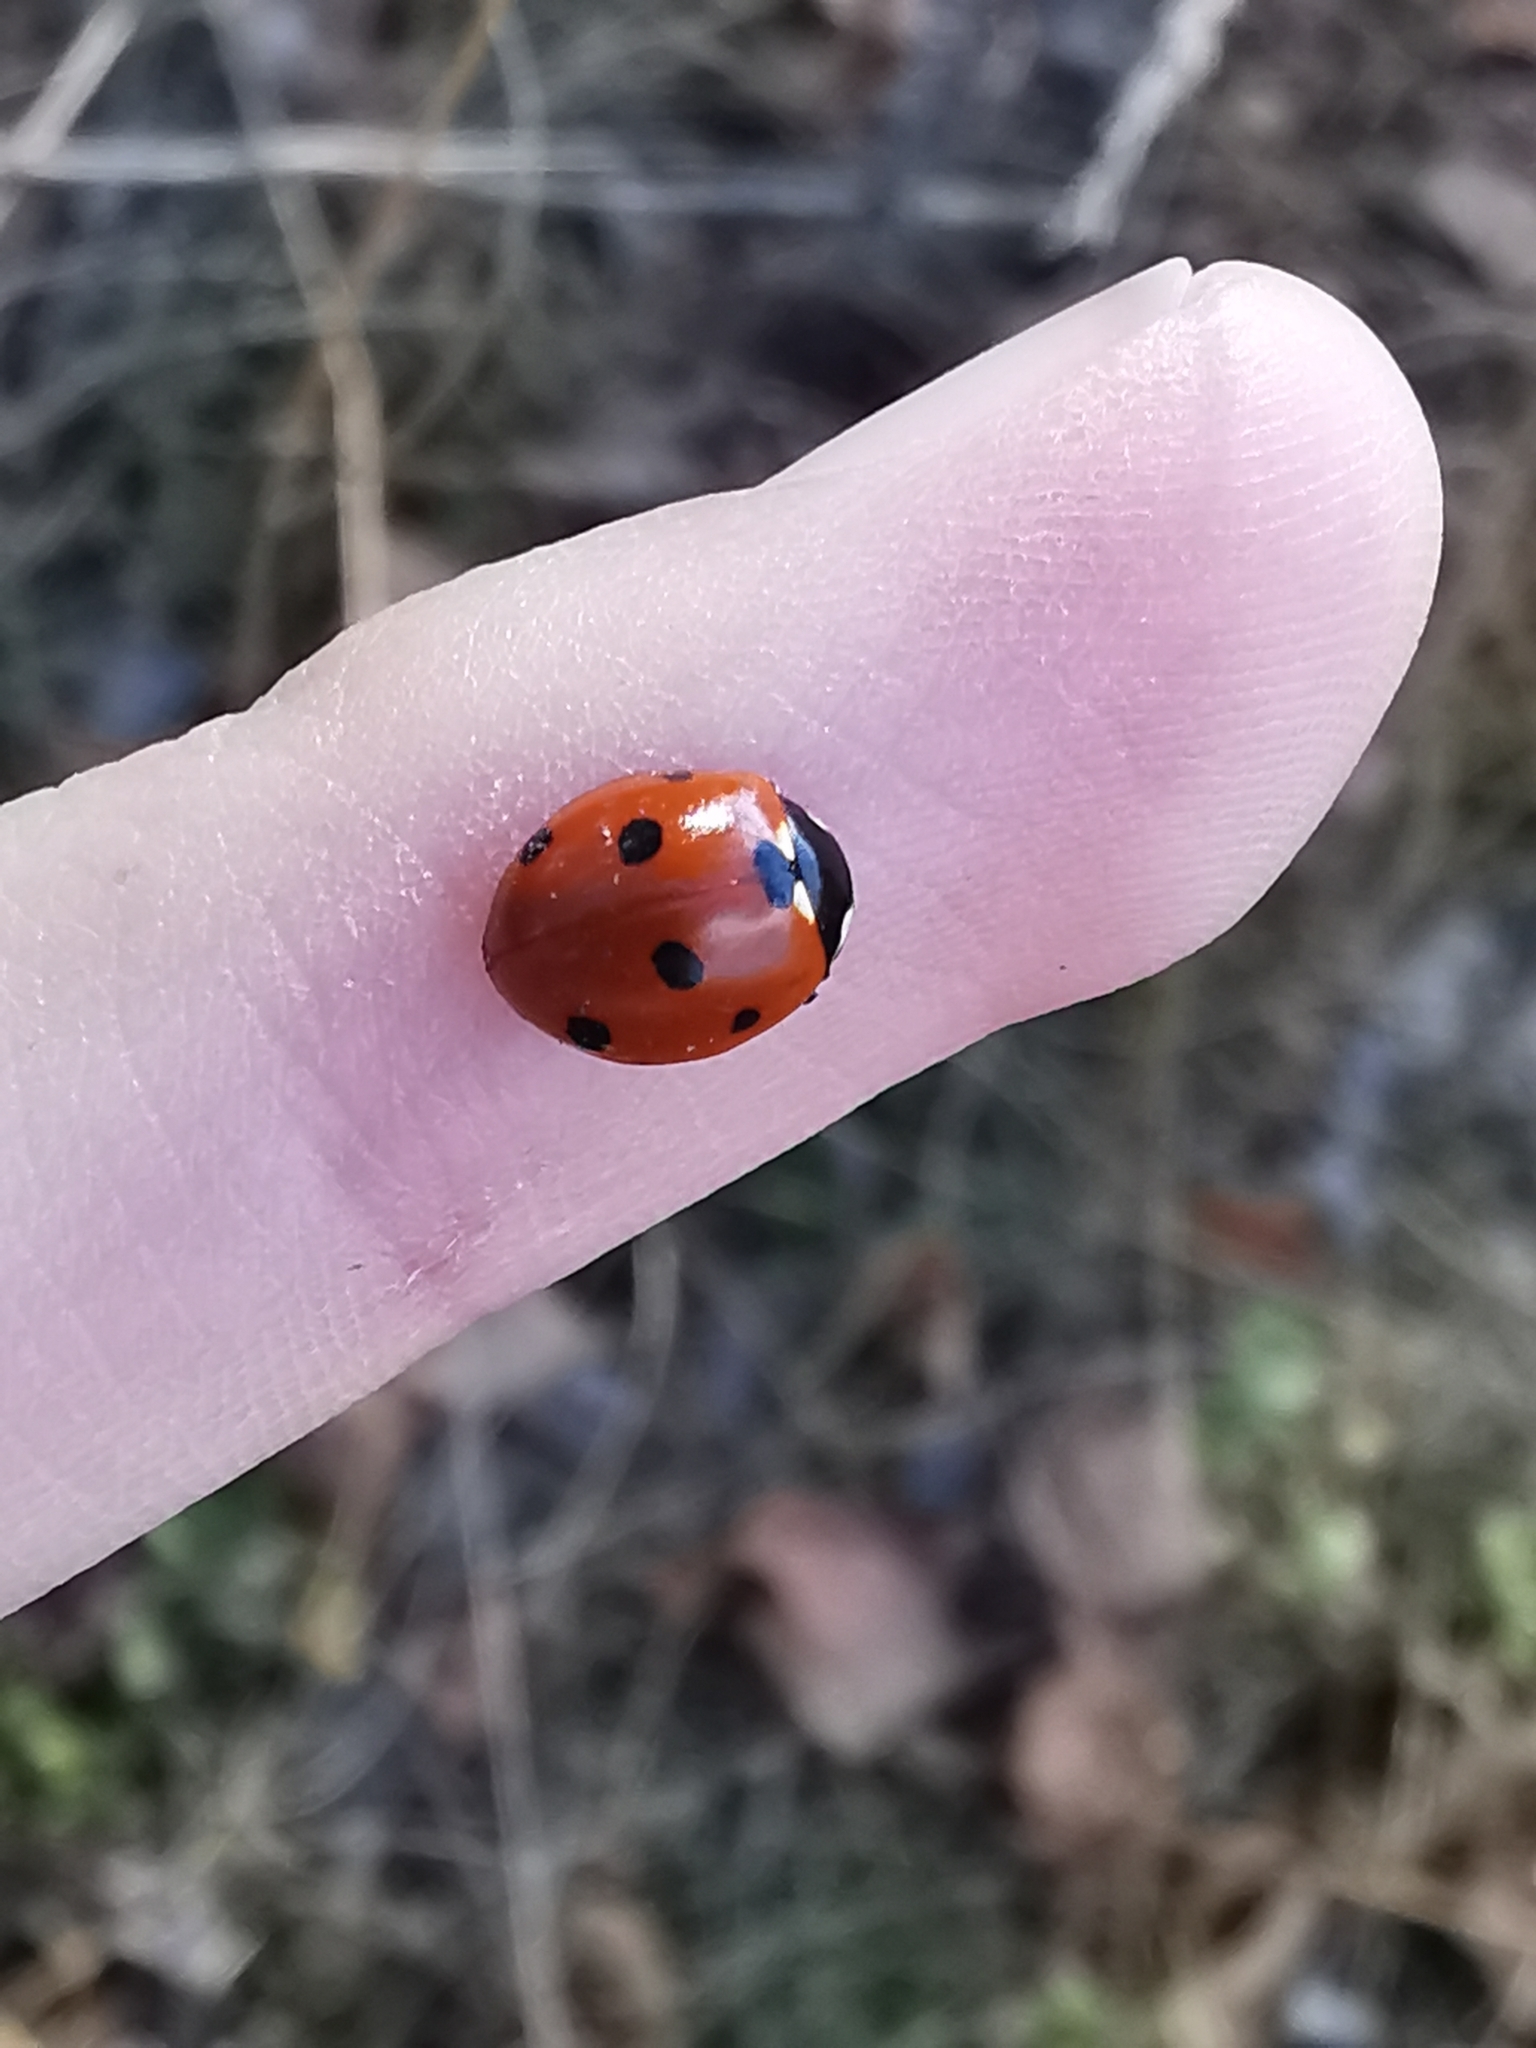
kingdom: Animalia
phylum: Arthropoda
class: Insecta
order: Coleoptera
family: Coccinellidae
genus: Coccinella
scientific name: Coccinella septempunctata
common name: Sevenspotted lady beetle
